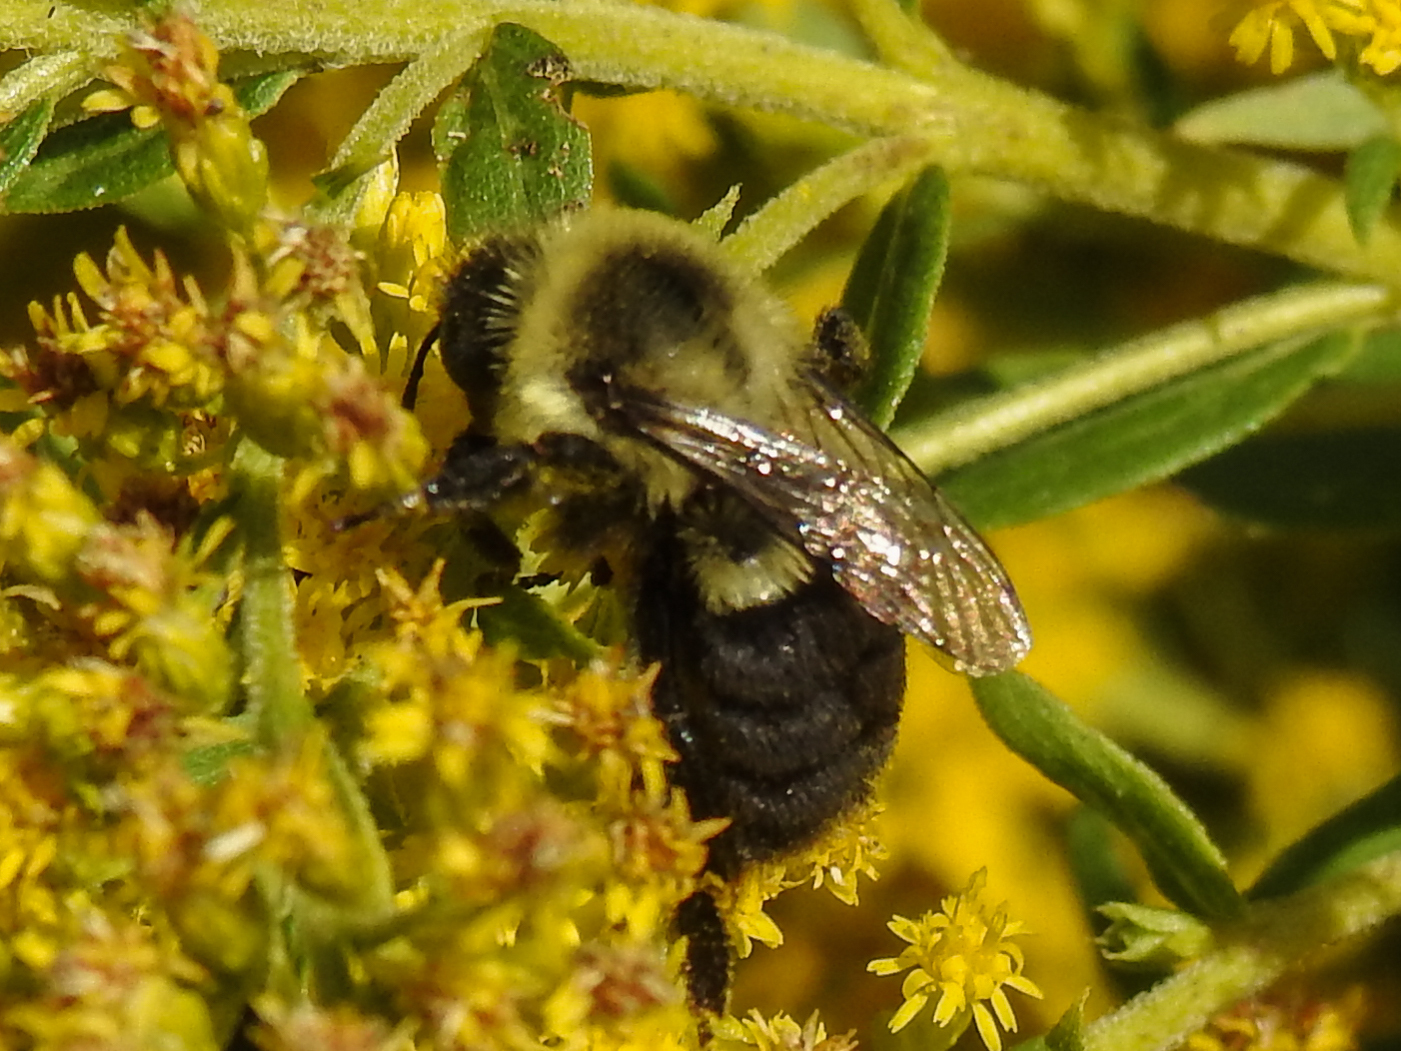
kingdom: Animalia
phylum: Arthropoda
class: Insecta
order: Hymenoptera
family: Apidae
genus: Bombus
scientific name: Bombus impatiens
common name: Common eastern bumble bee
